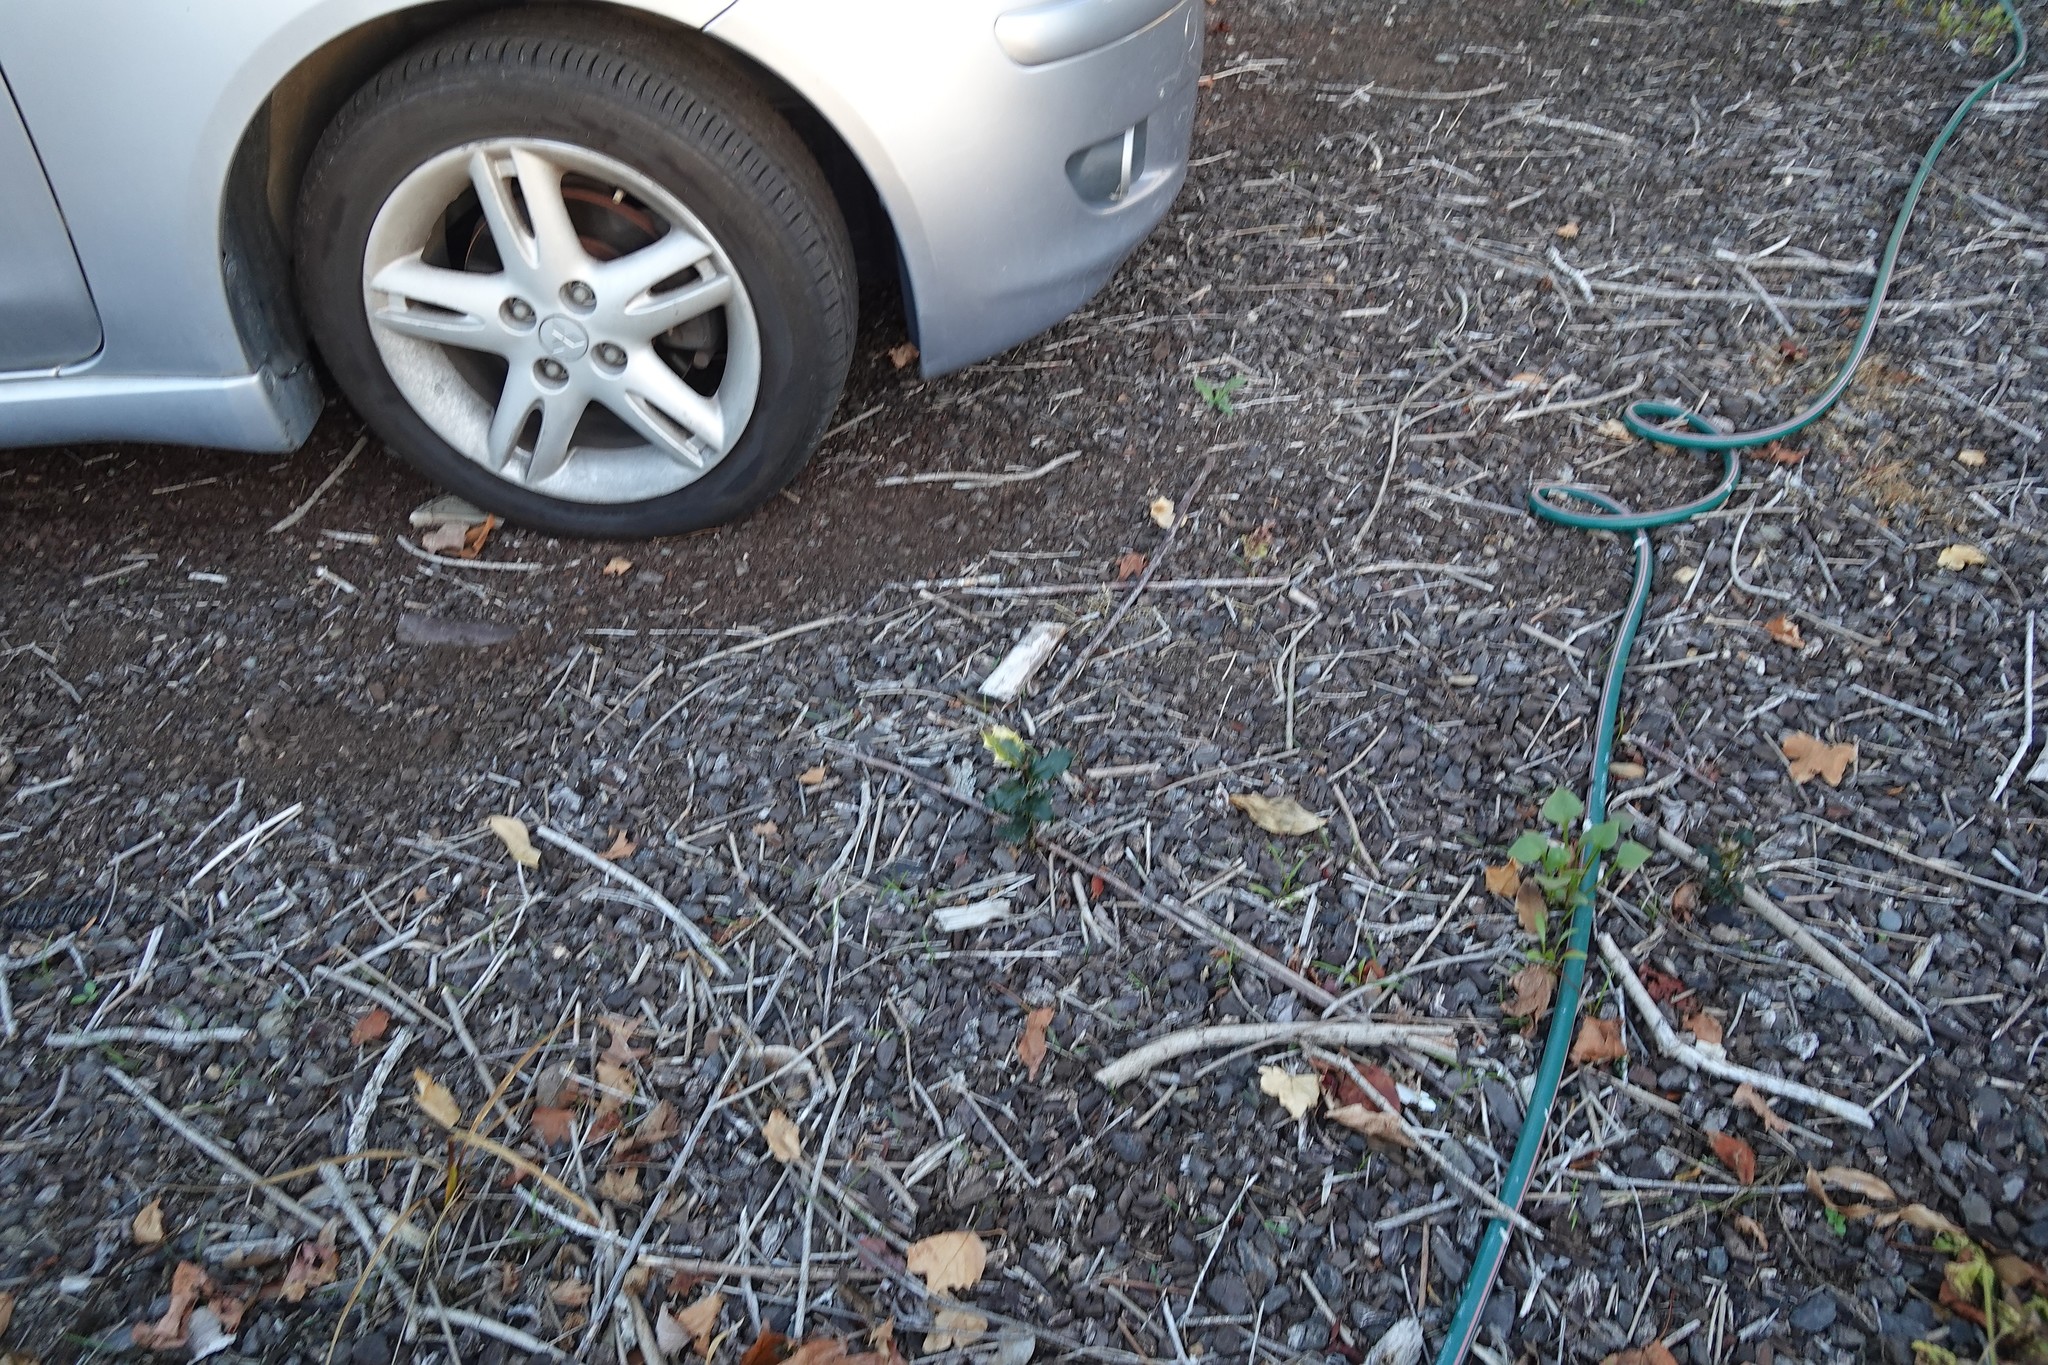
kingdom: Plantae
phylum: Tracheophyta
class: Magnoliopsida
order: Aquifoliales
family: Aquifoliaceae
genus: Ilex
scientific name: Ilex aquifolium
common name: English holly
